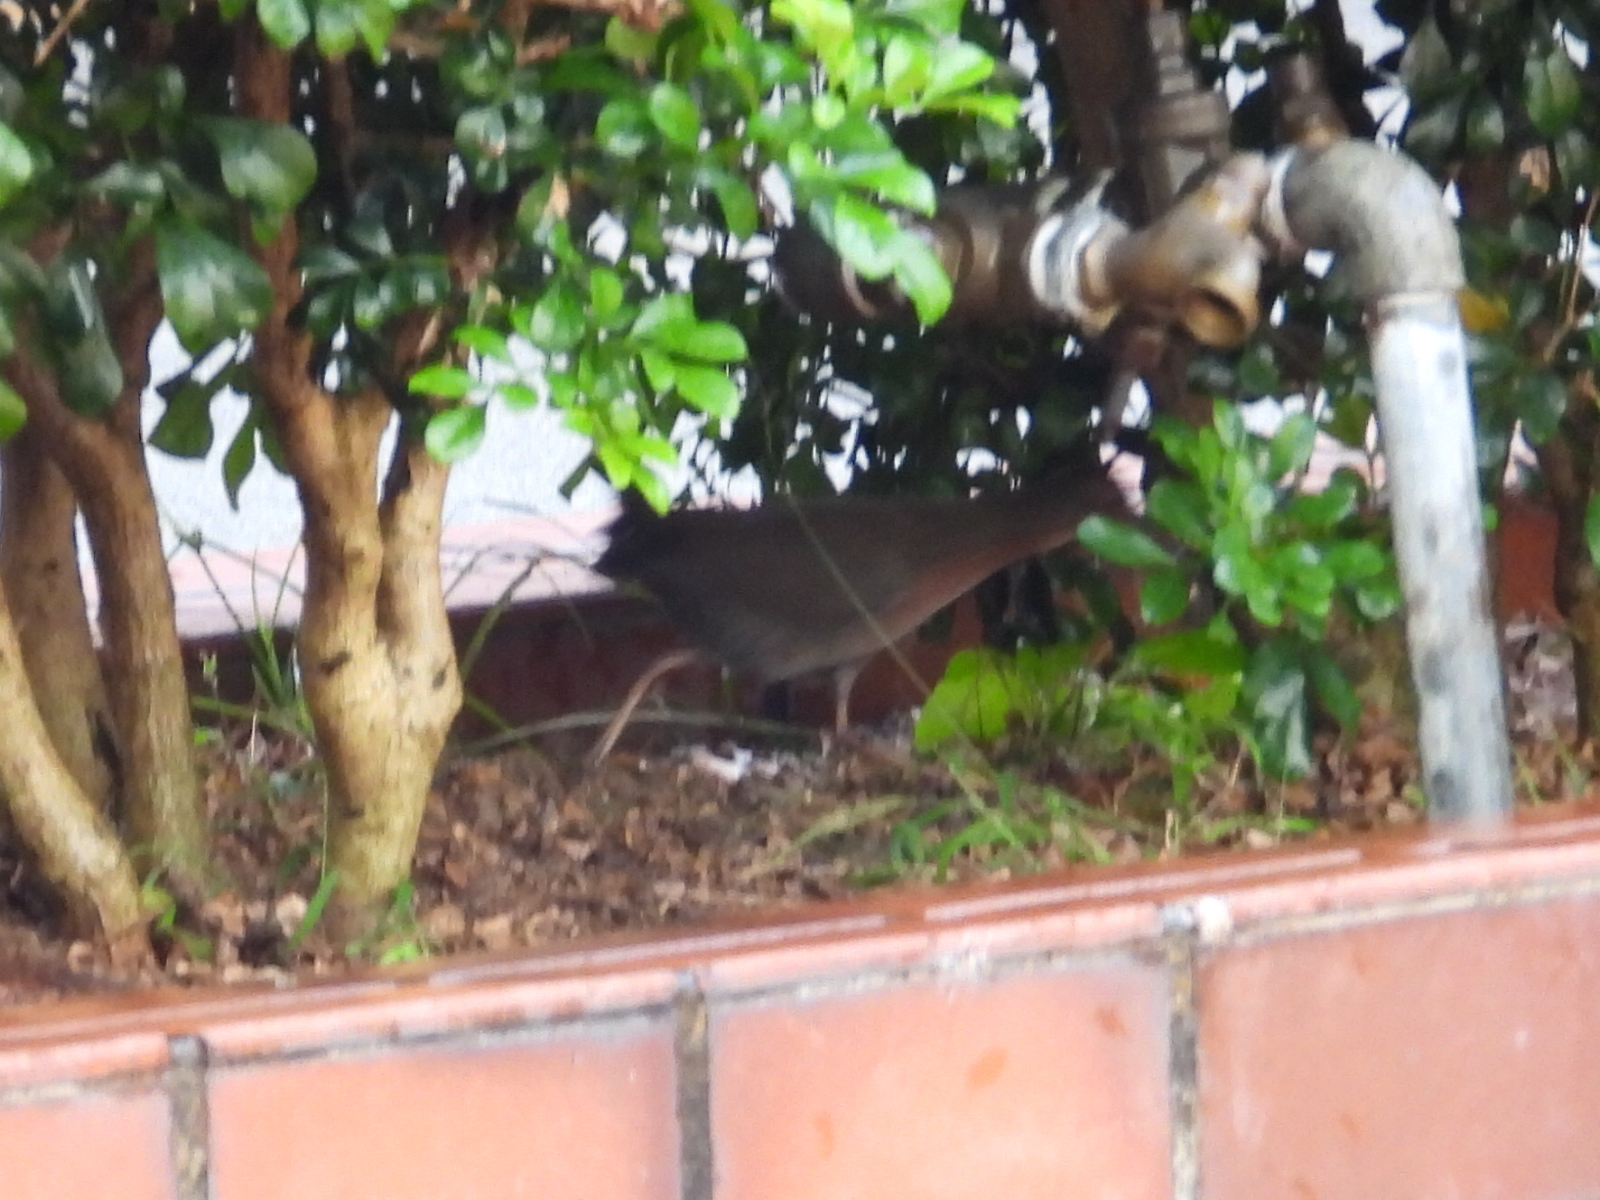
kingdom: Animalia
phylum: Chordata
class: Aves
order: Gruiformes
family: Rallidae
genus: Porzana
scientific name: Porzana fusca
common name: Ruddy-breasted crake
